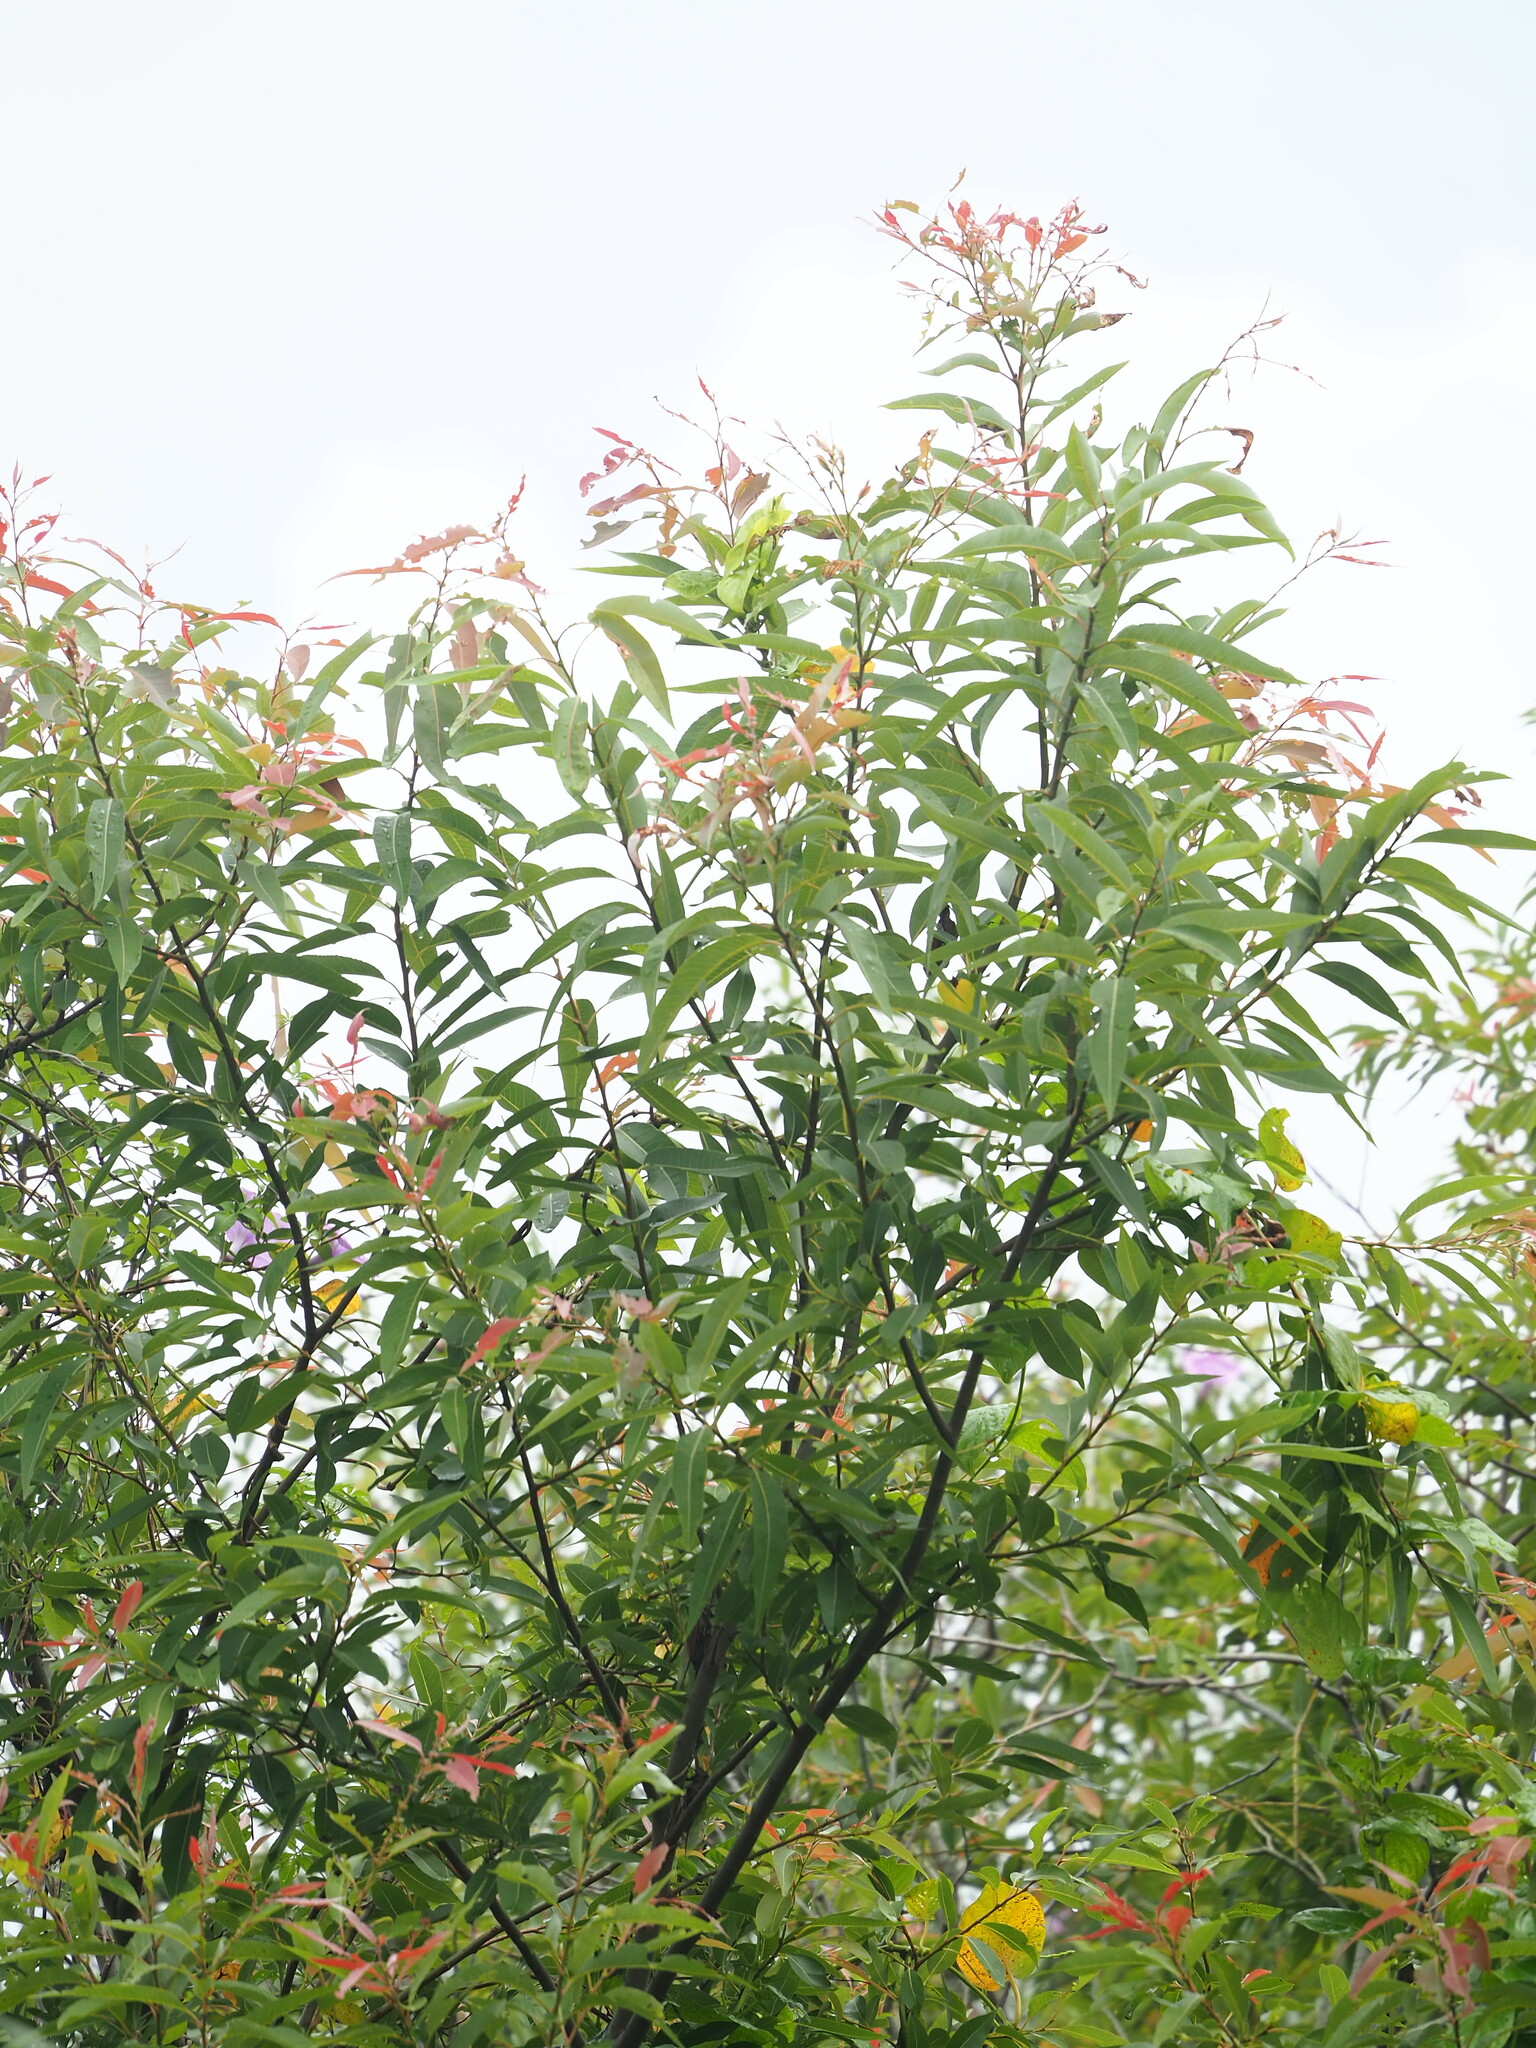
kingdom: Plantae
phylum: Tracheophyta
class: Magnoliopsida
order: Malpighiales
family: Salicaceae
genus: Salix
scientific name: Salix mesnyi
